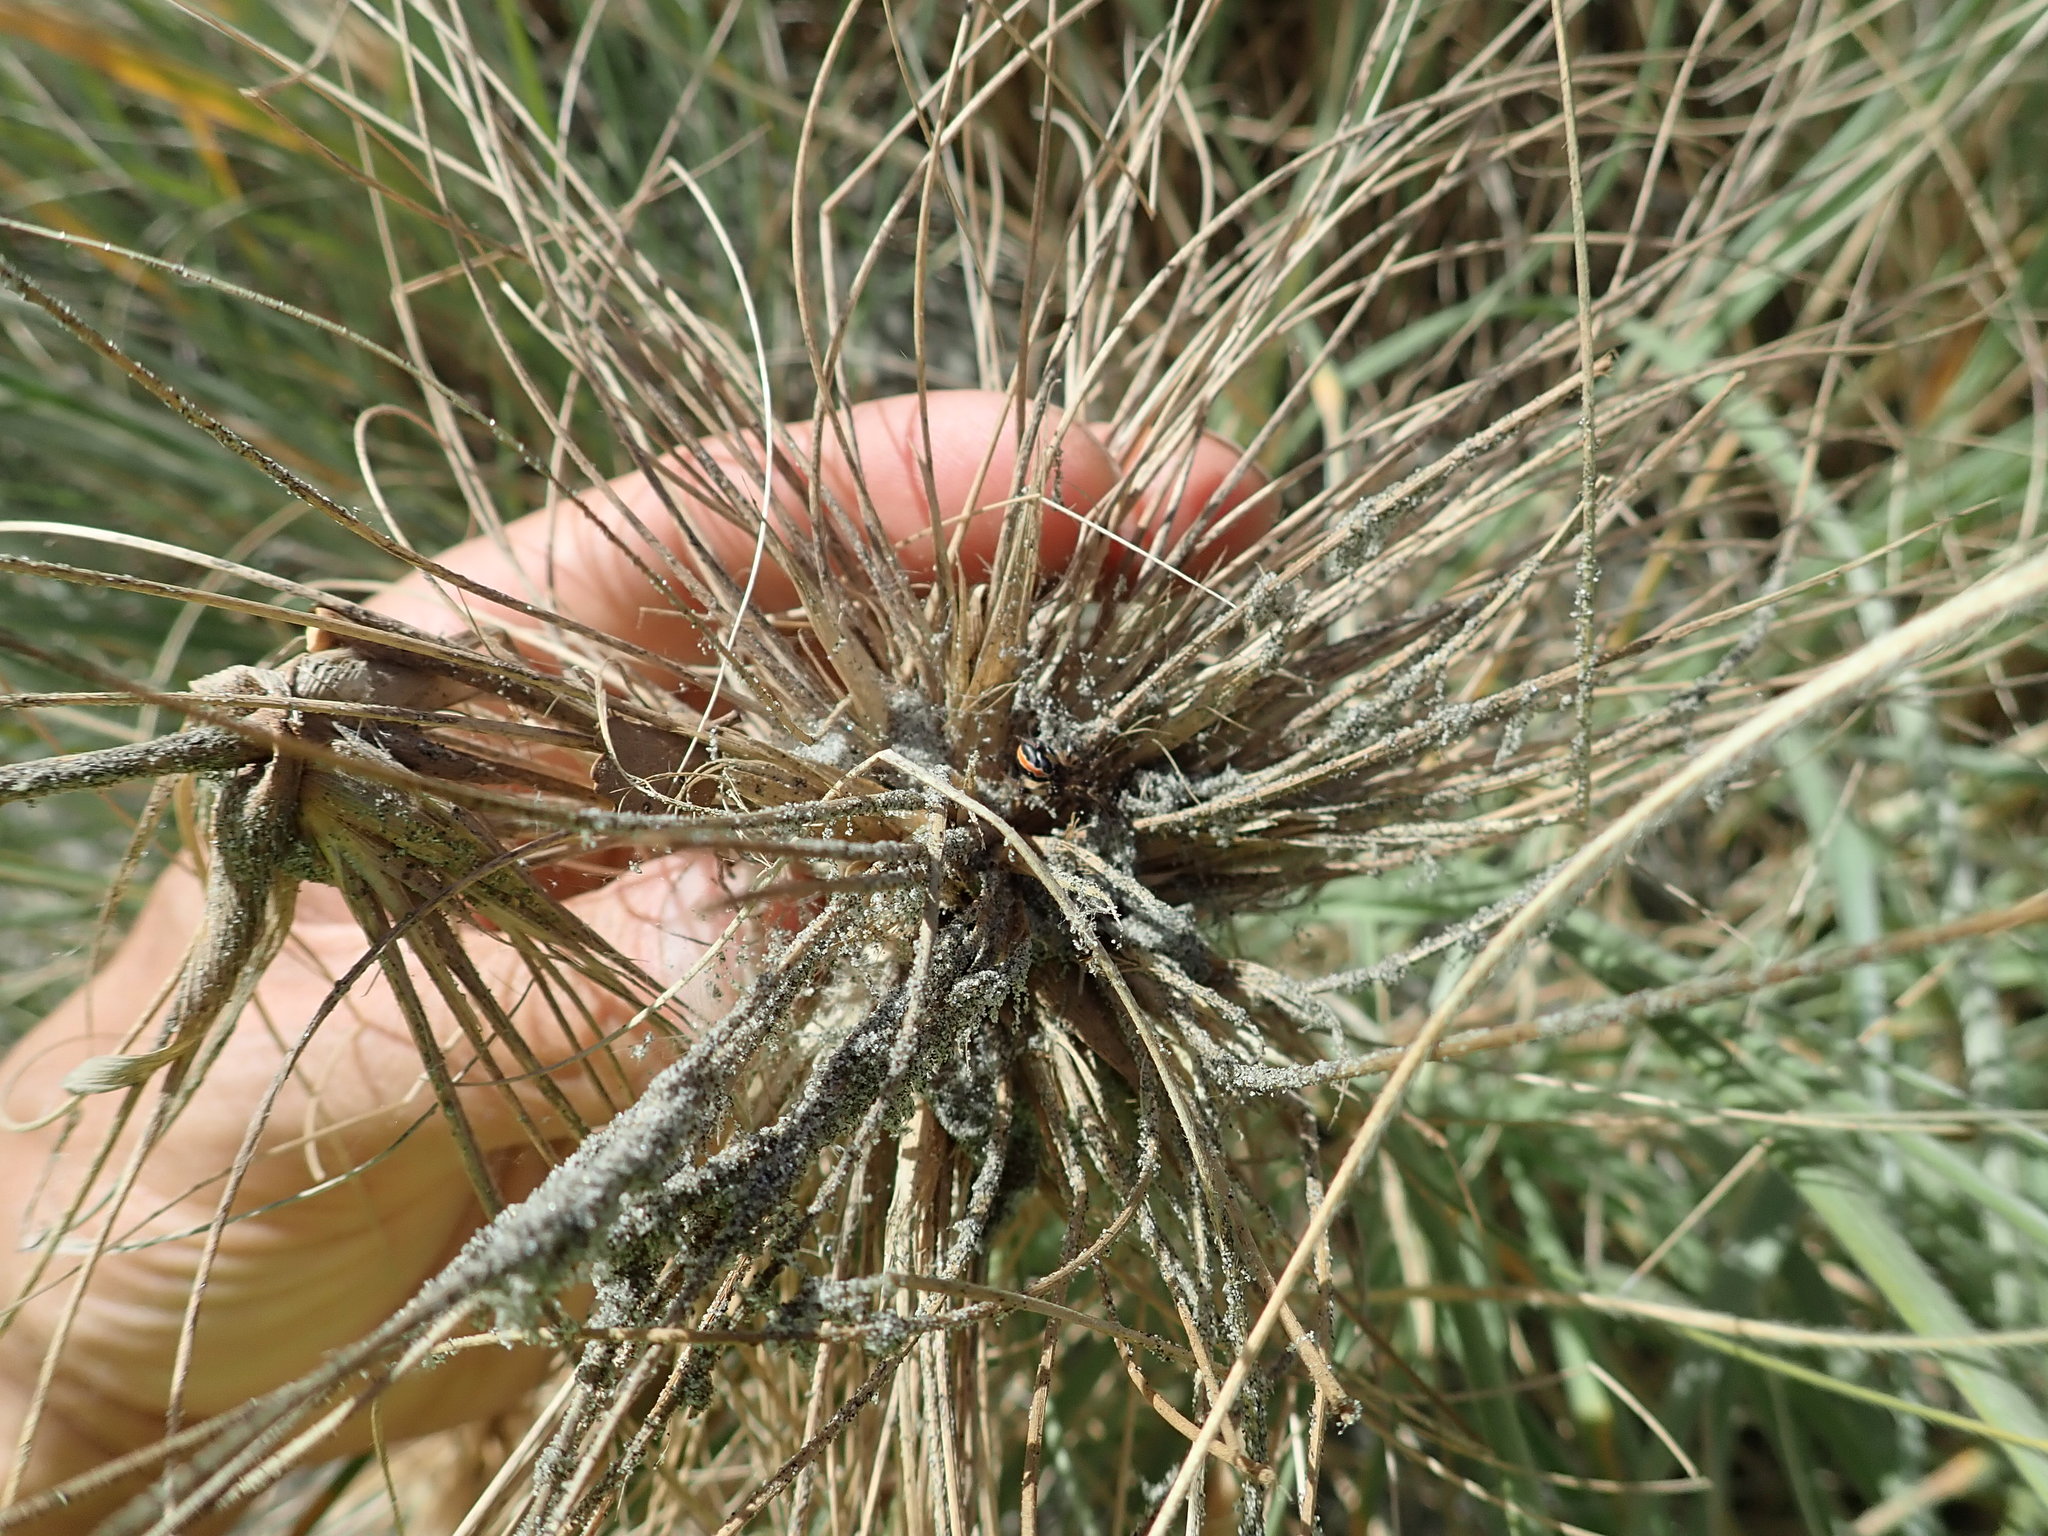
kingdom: Animalia
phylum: Arthropoda
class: Arachnida
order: Araneae
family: Theridiidae
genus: Latrodectus
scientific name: Latrodectus katipo
